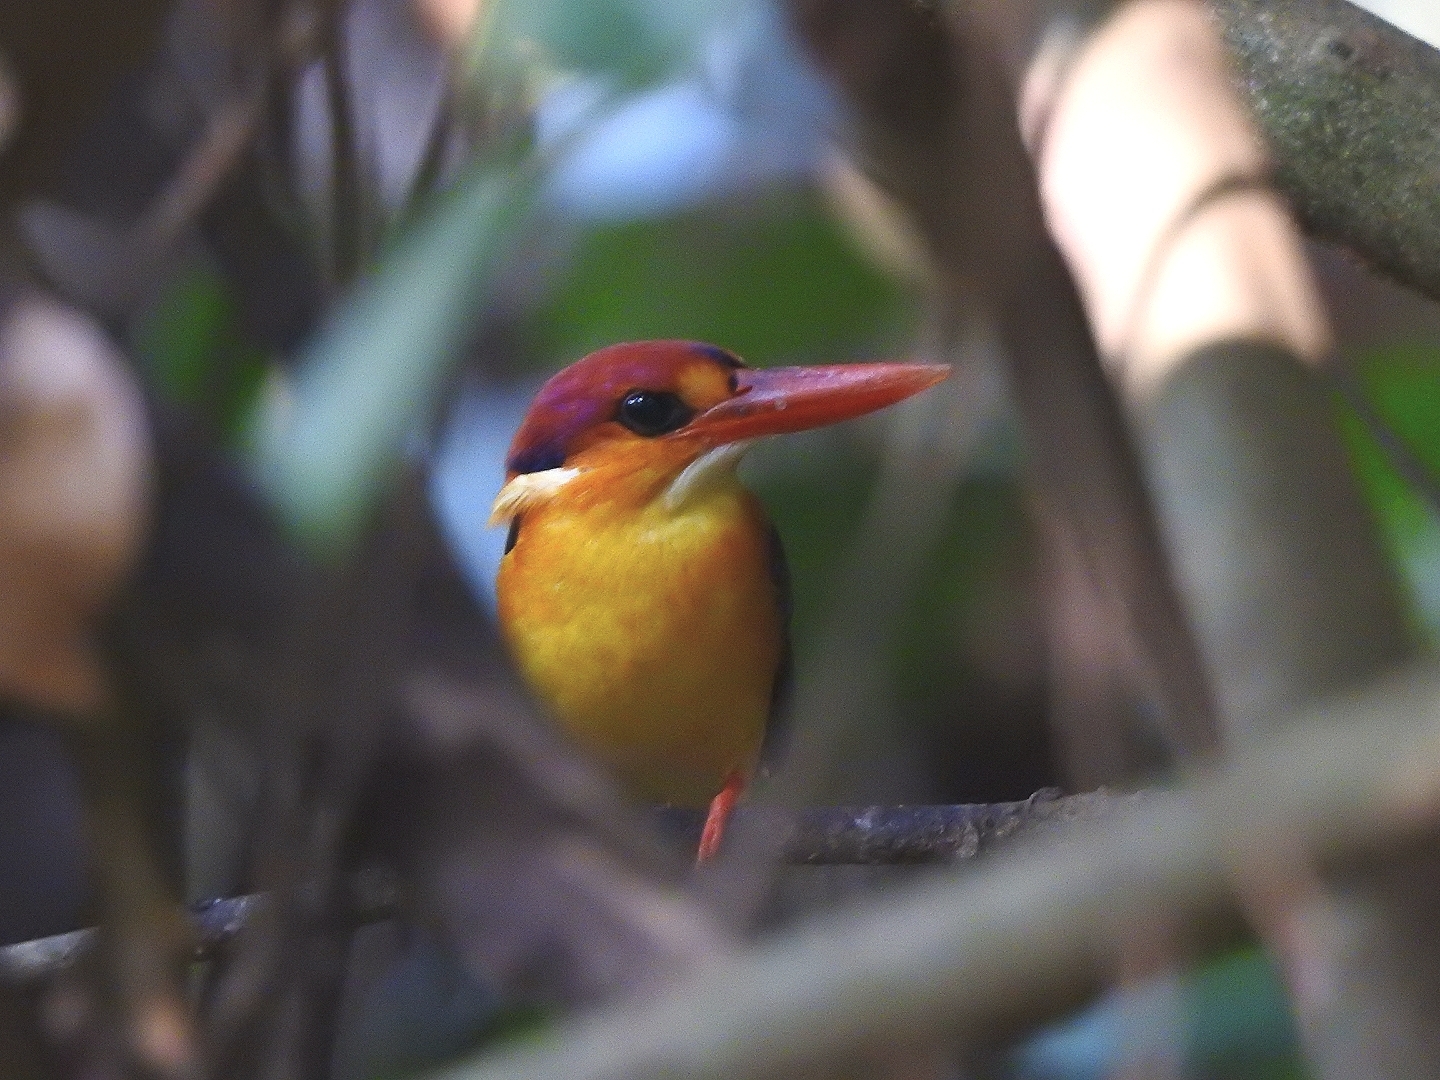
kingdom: Animalia
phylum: Chordata
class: Aves
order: Coraciiformes
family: Alcedinidae
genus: Ceyx
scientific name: Ceyx erithaca
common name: Oriental dwarf kingfisher
